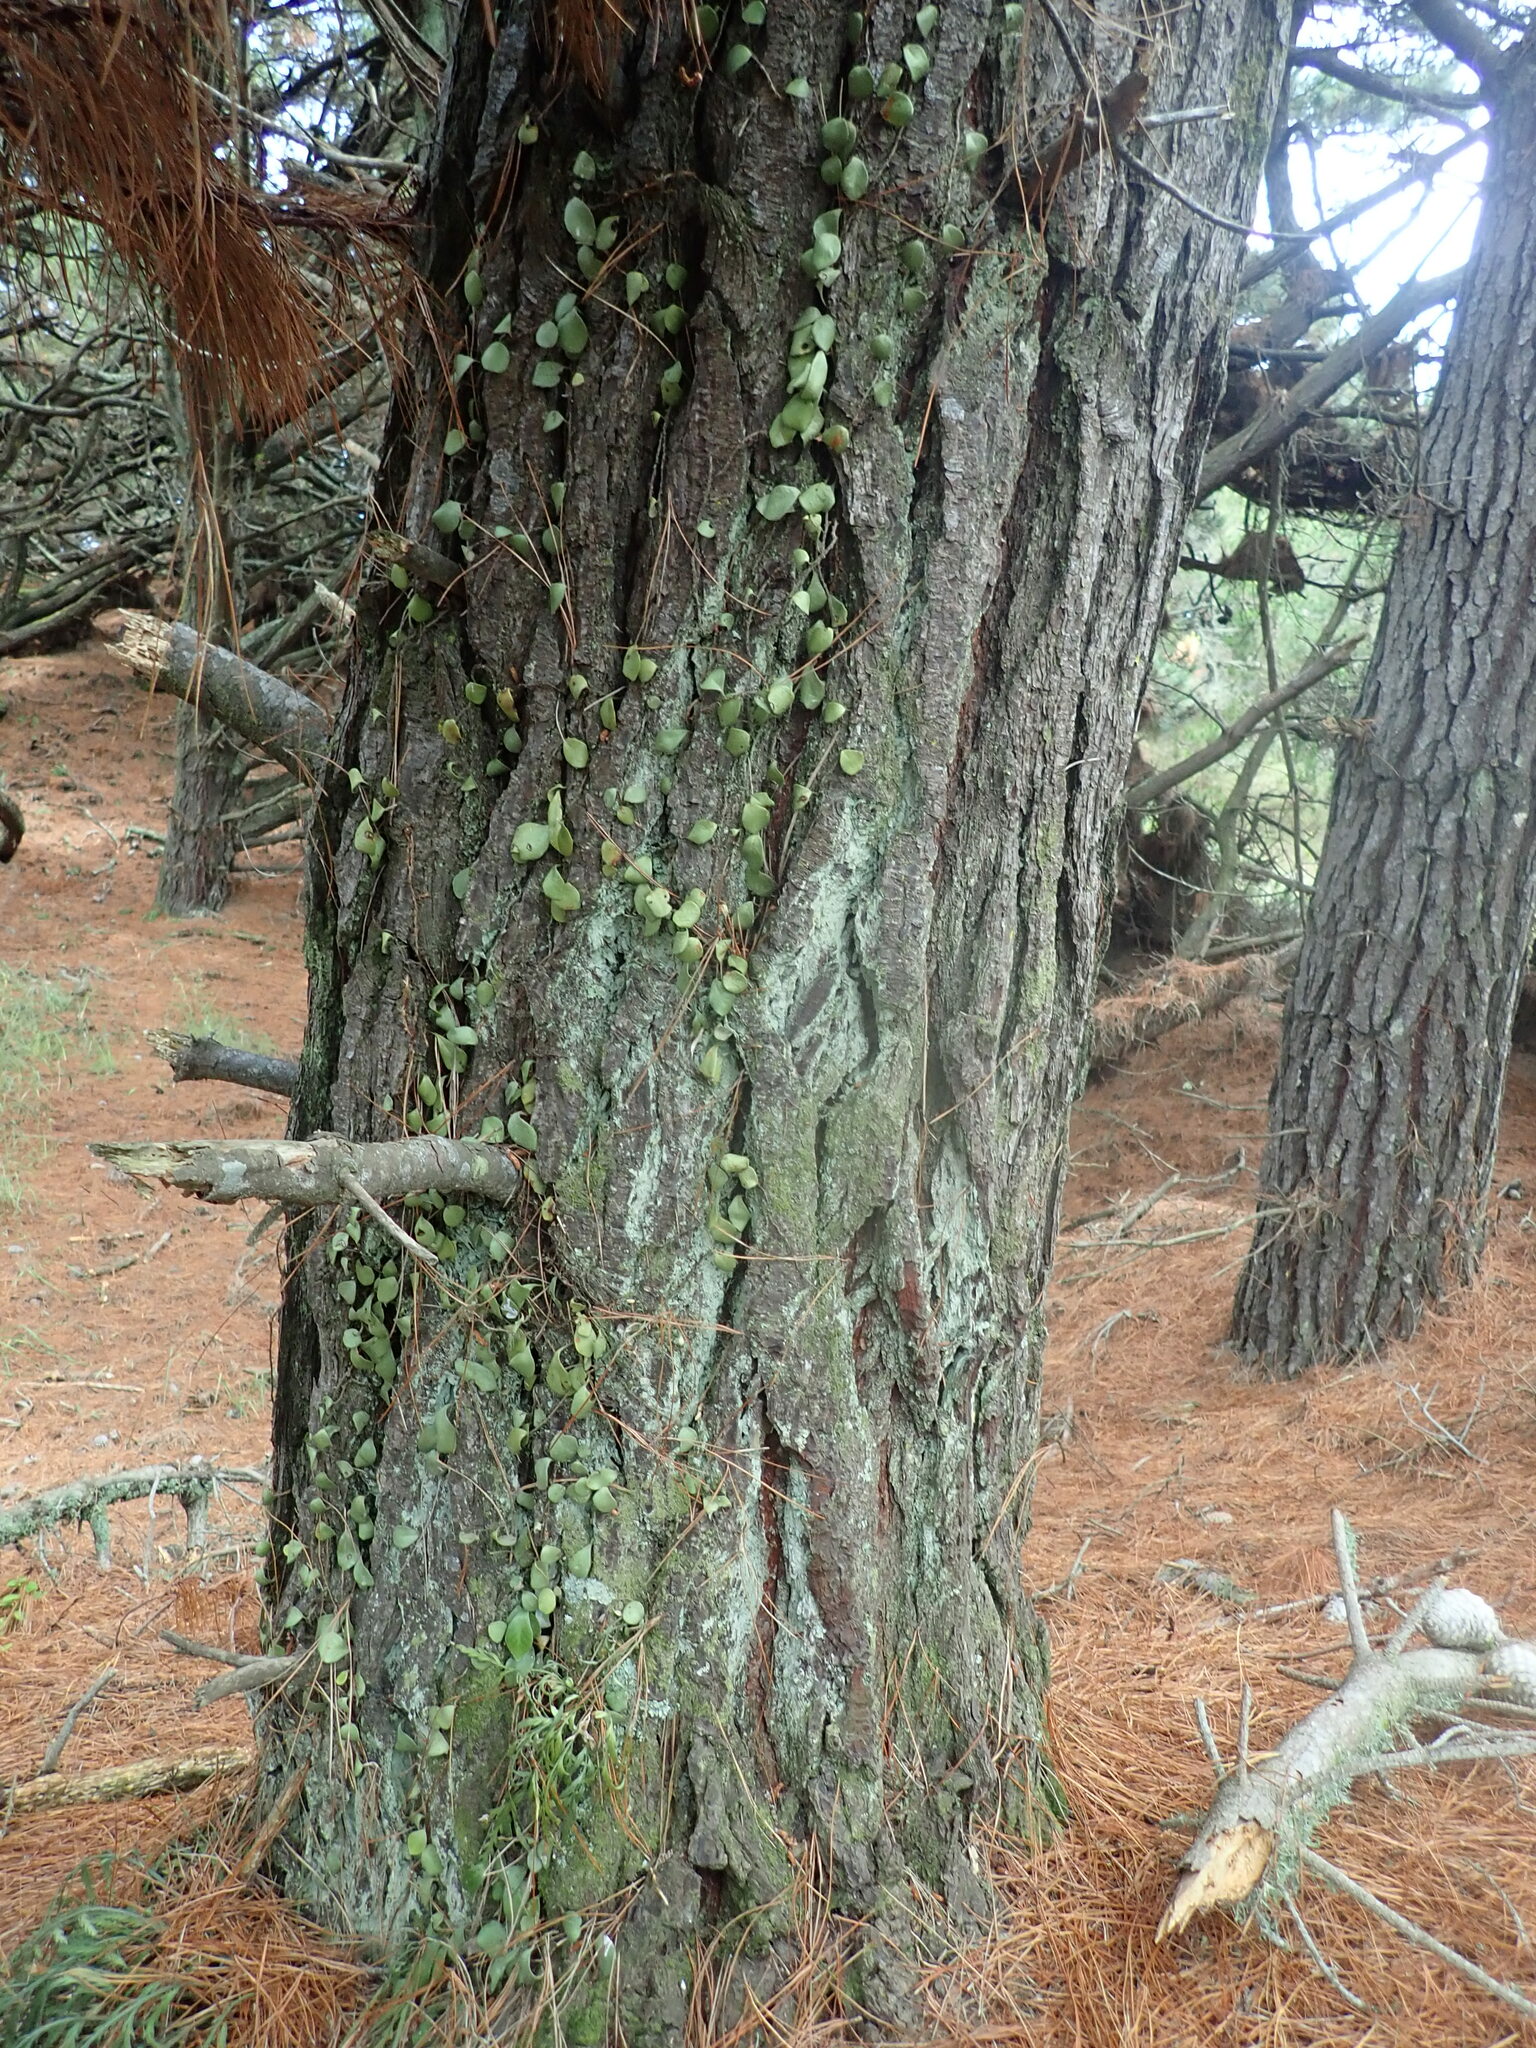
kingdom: Plantae
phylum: Tracheophyta
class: Polypodiopsida
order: Polypodiales
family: Polypodiaceae
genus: Pyrrosia
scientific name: Pyrrosia eleagnifolia
